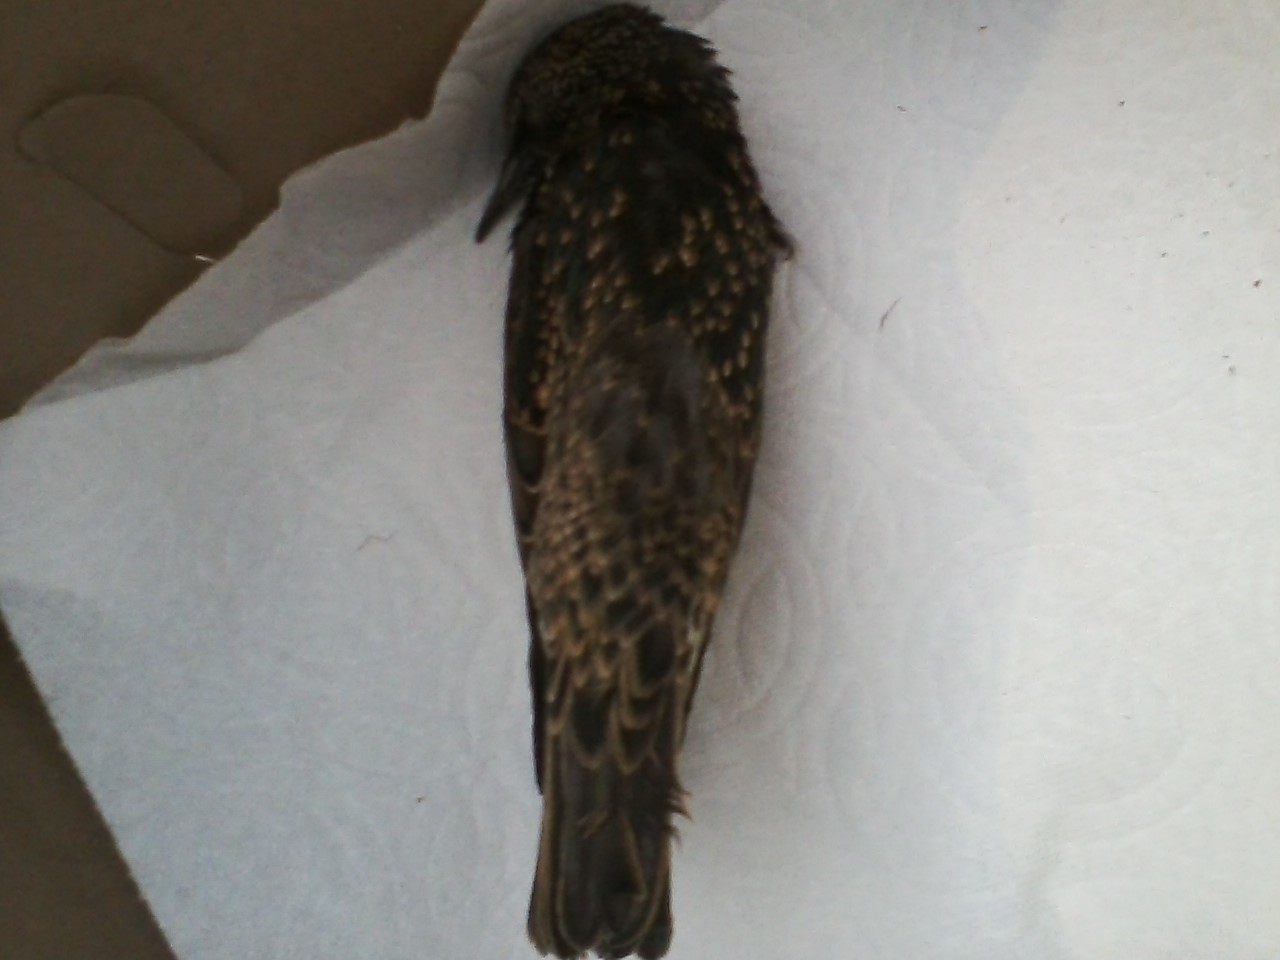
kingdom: Animalia
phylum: Chordata
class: Aves
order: Passeriformes
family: Sturnidae
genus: Sturnus
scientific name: Sturnus vulgaris
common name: Common starling
